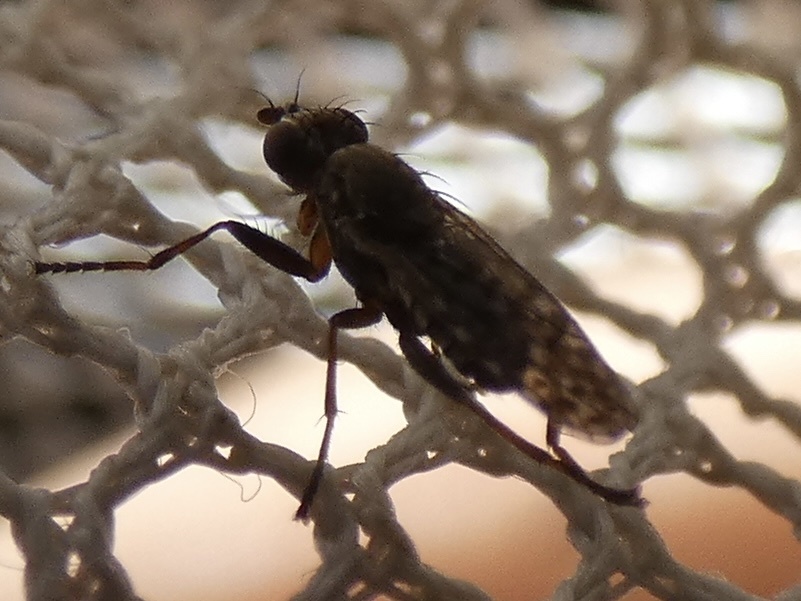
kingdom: Animalia
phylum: Arthropoda
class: Insecta
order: Diptera
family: Sciomyzidae
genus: Pherbellia
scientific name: Pherbellia schoenherri
